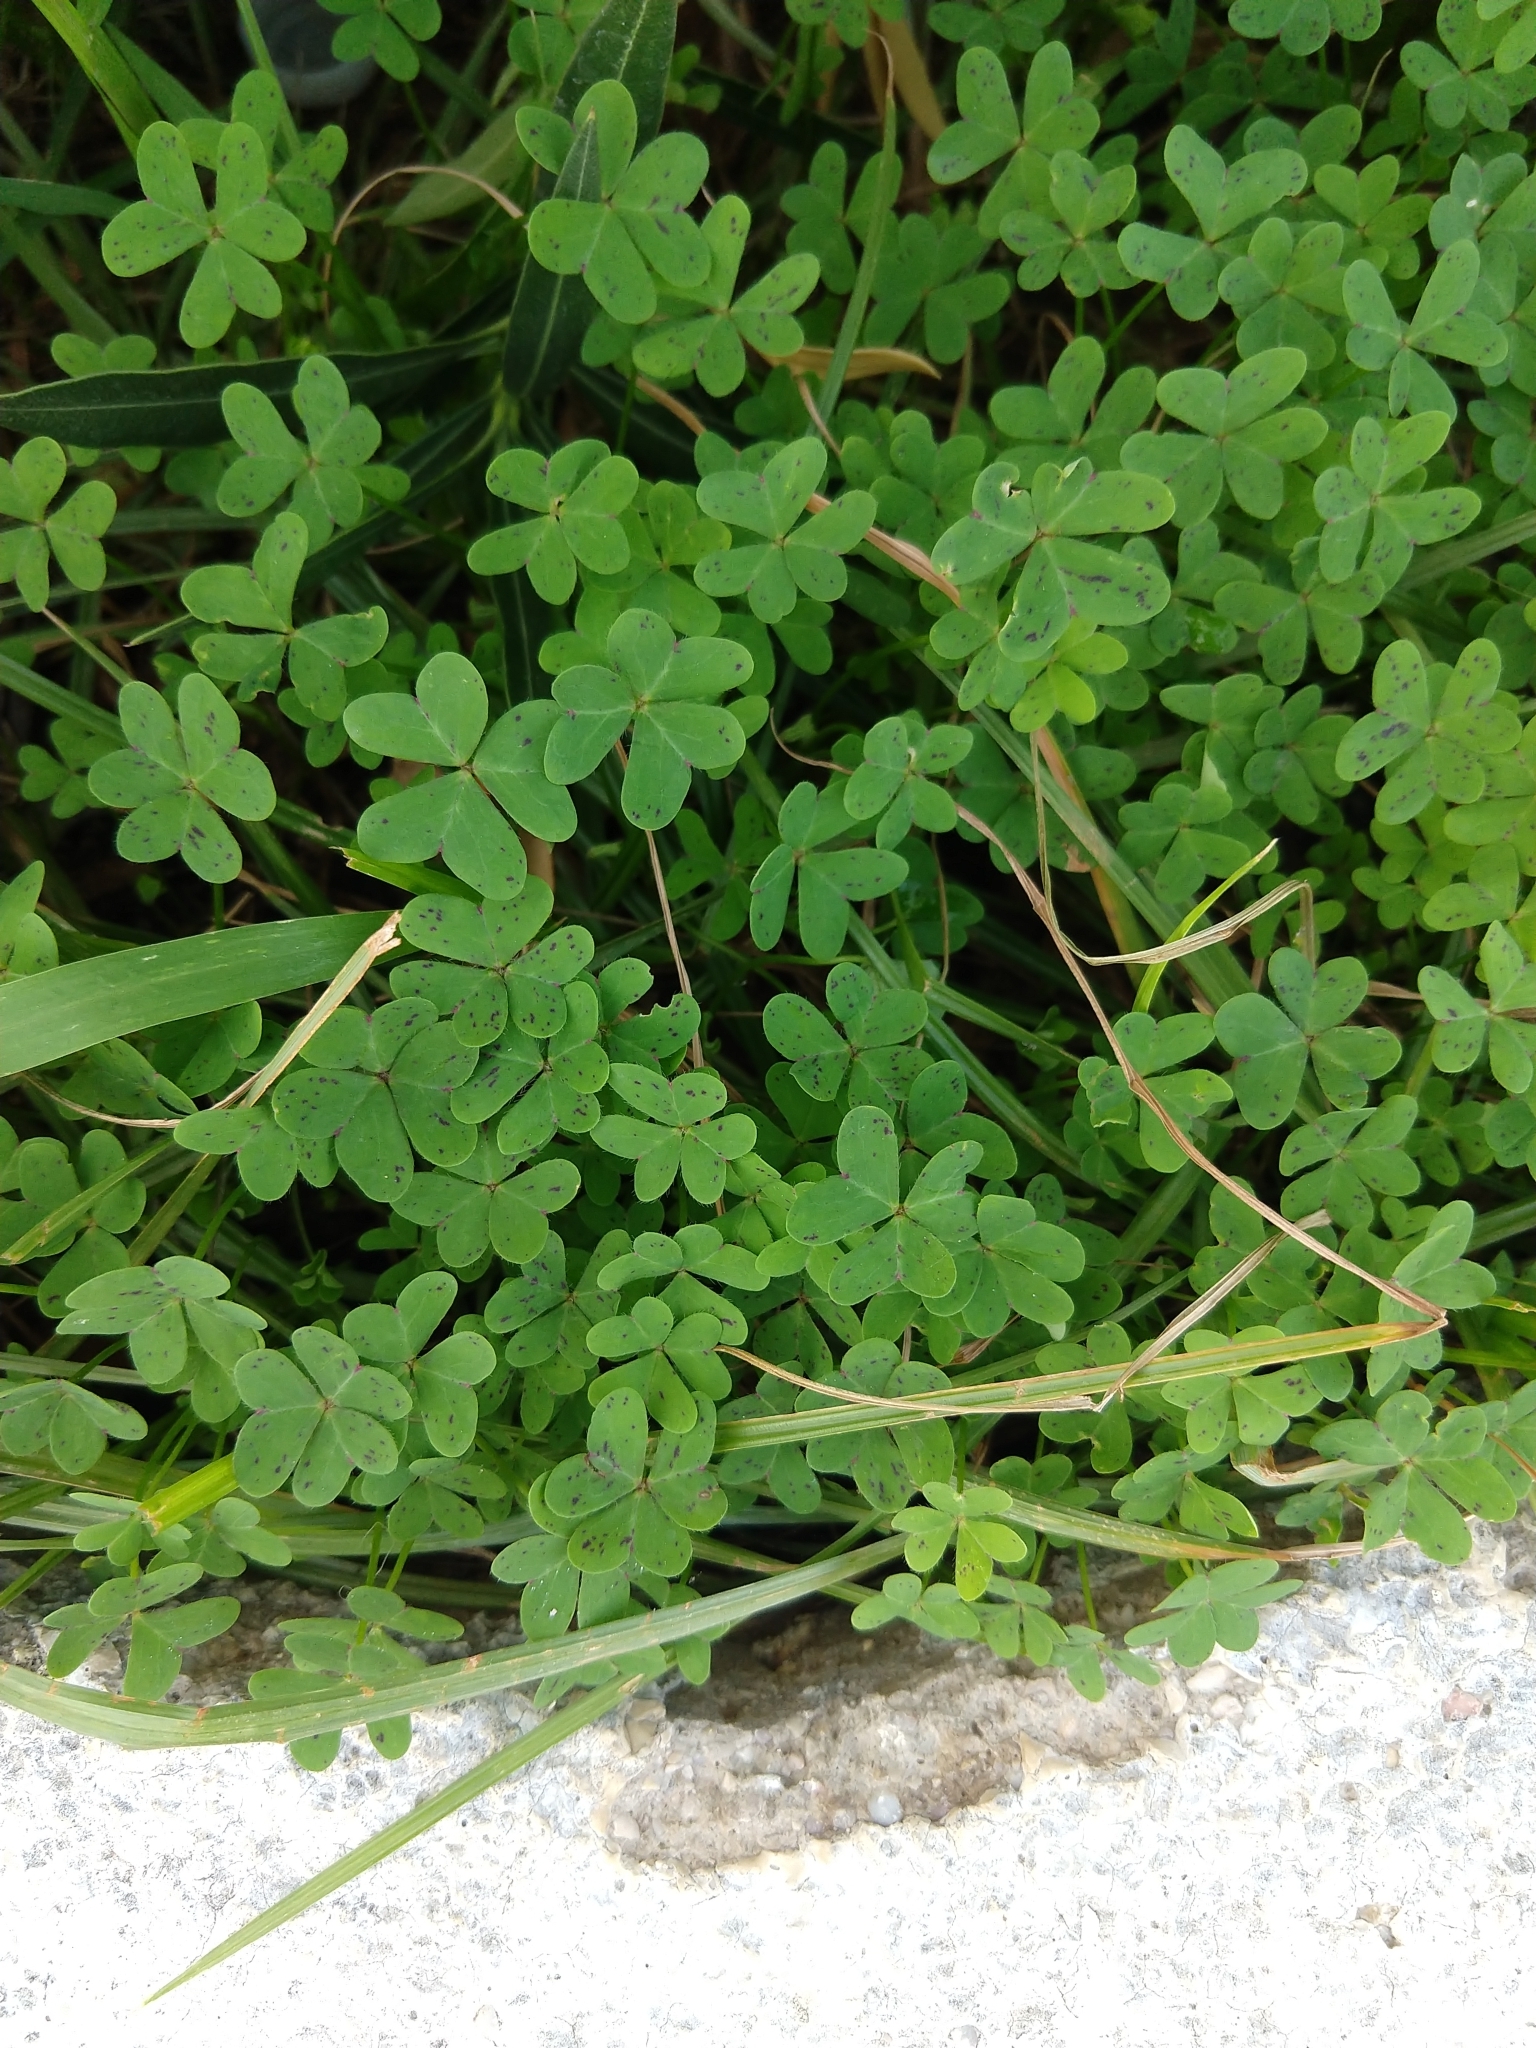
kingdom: Plantae
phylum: Tracheophyta
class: Magnoliopsida
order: Oxalidales
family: Oxalidaceae
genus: Oxalis
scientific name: Oxalis pes-caprae
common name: Bermuda-buttercup
